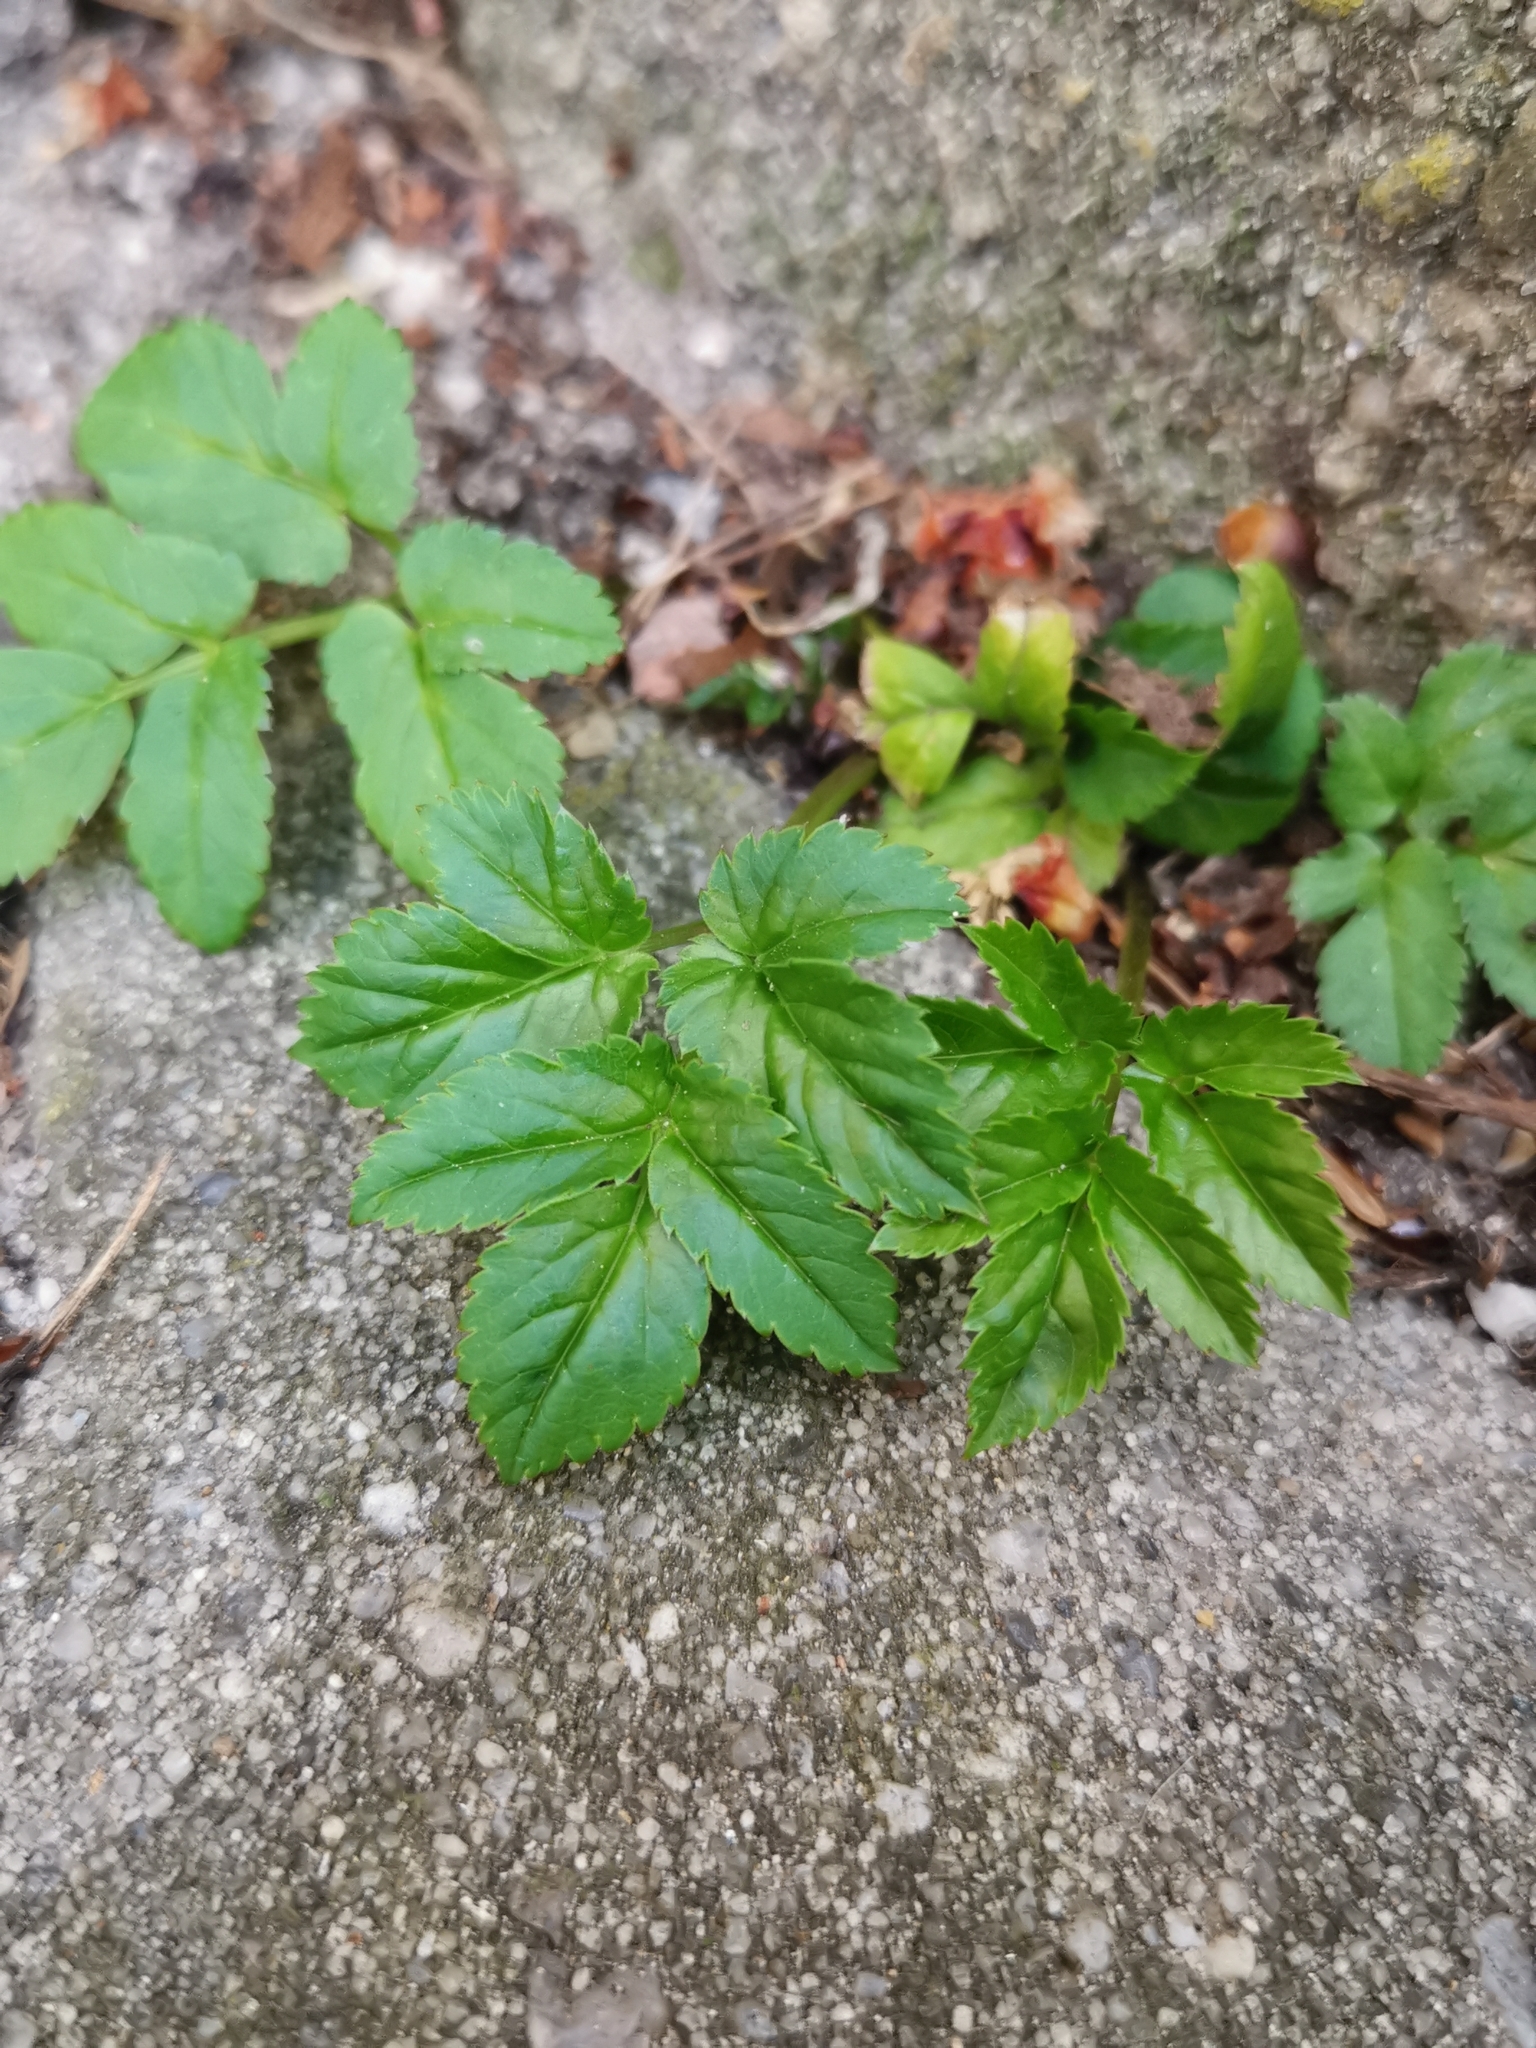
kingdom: Plantae
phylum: Tracheophyta
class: Magnoliopsida
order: Apiales
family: Apiaceae
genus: Aegopodium
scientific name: Aegopodium podagraria
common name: Ground-elder
